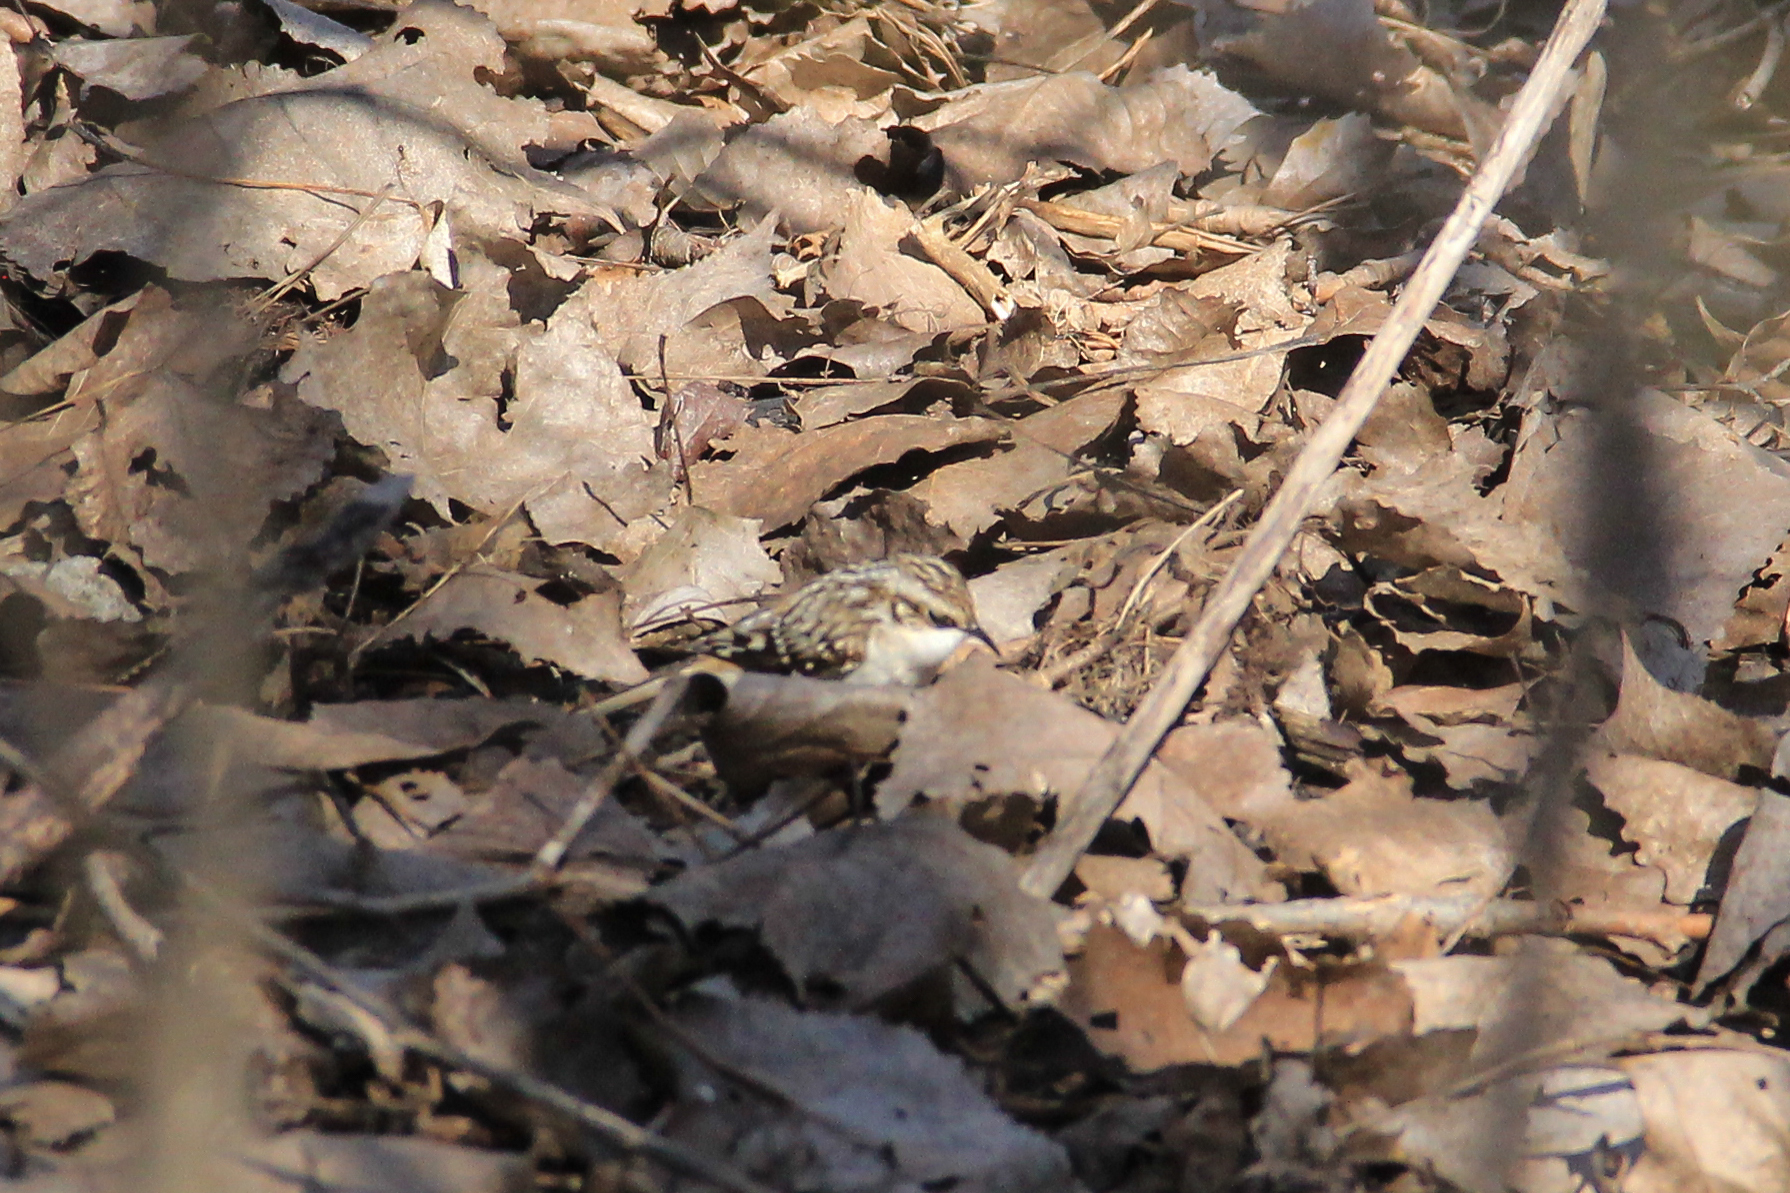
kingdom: Animalia
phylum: Chordata
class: Aves
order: Passeriformes
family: Certhiidae
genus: Certhia
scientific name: Certhia americana
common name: Brown creeper
